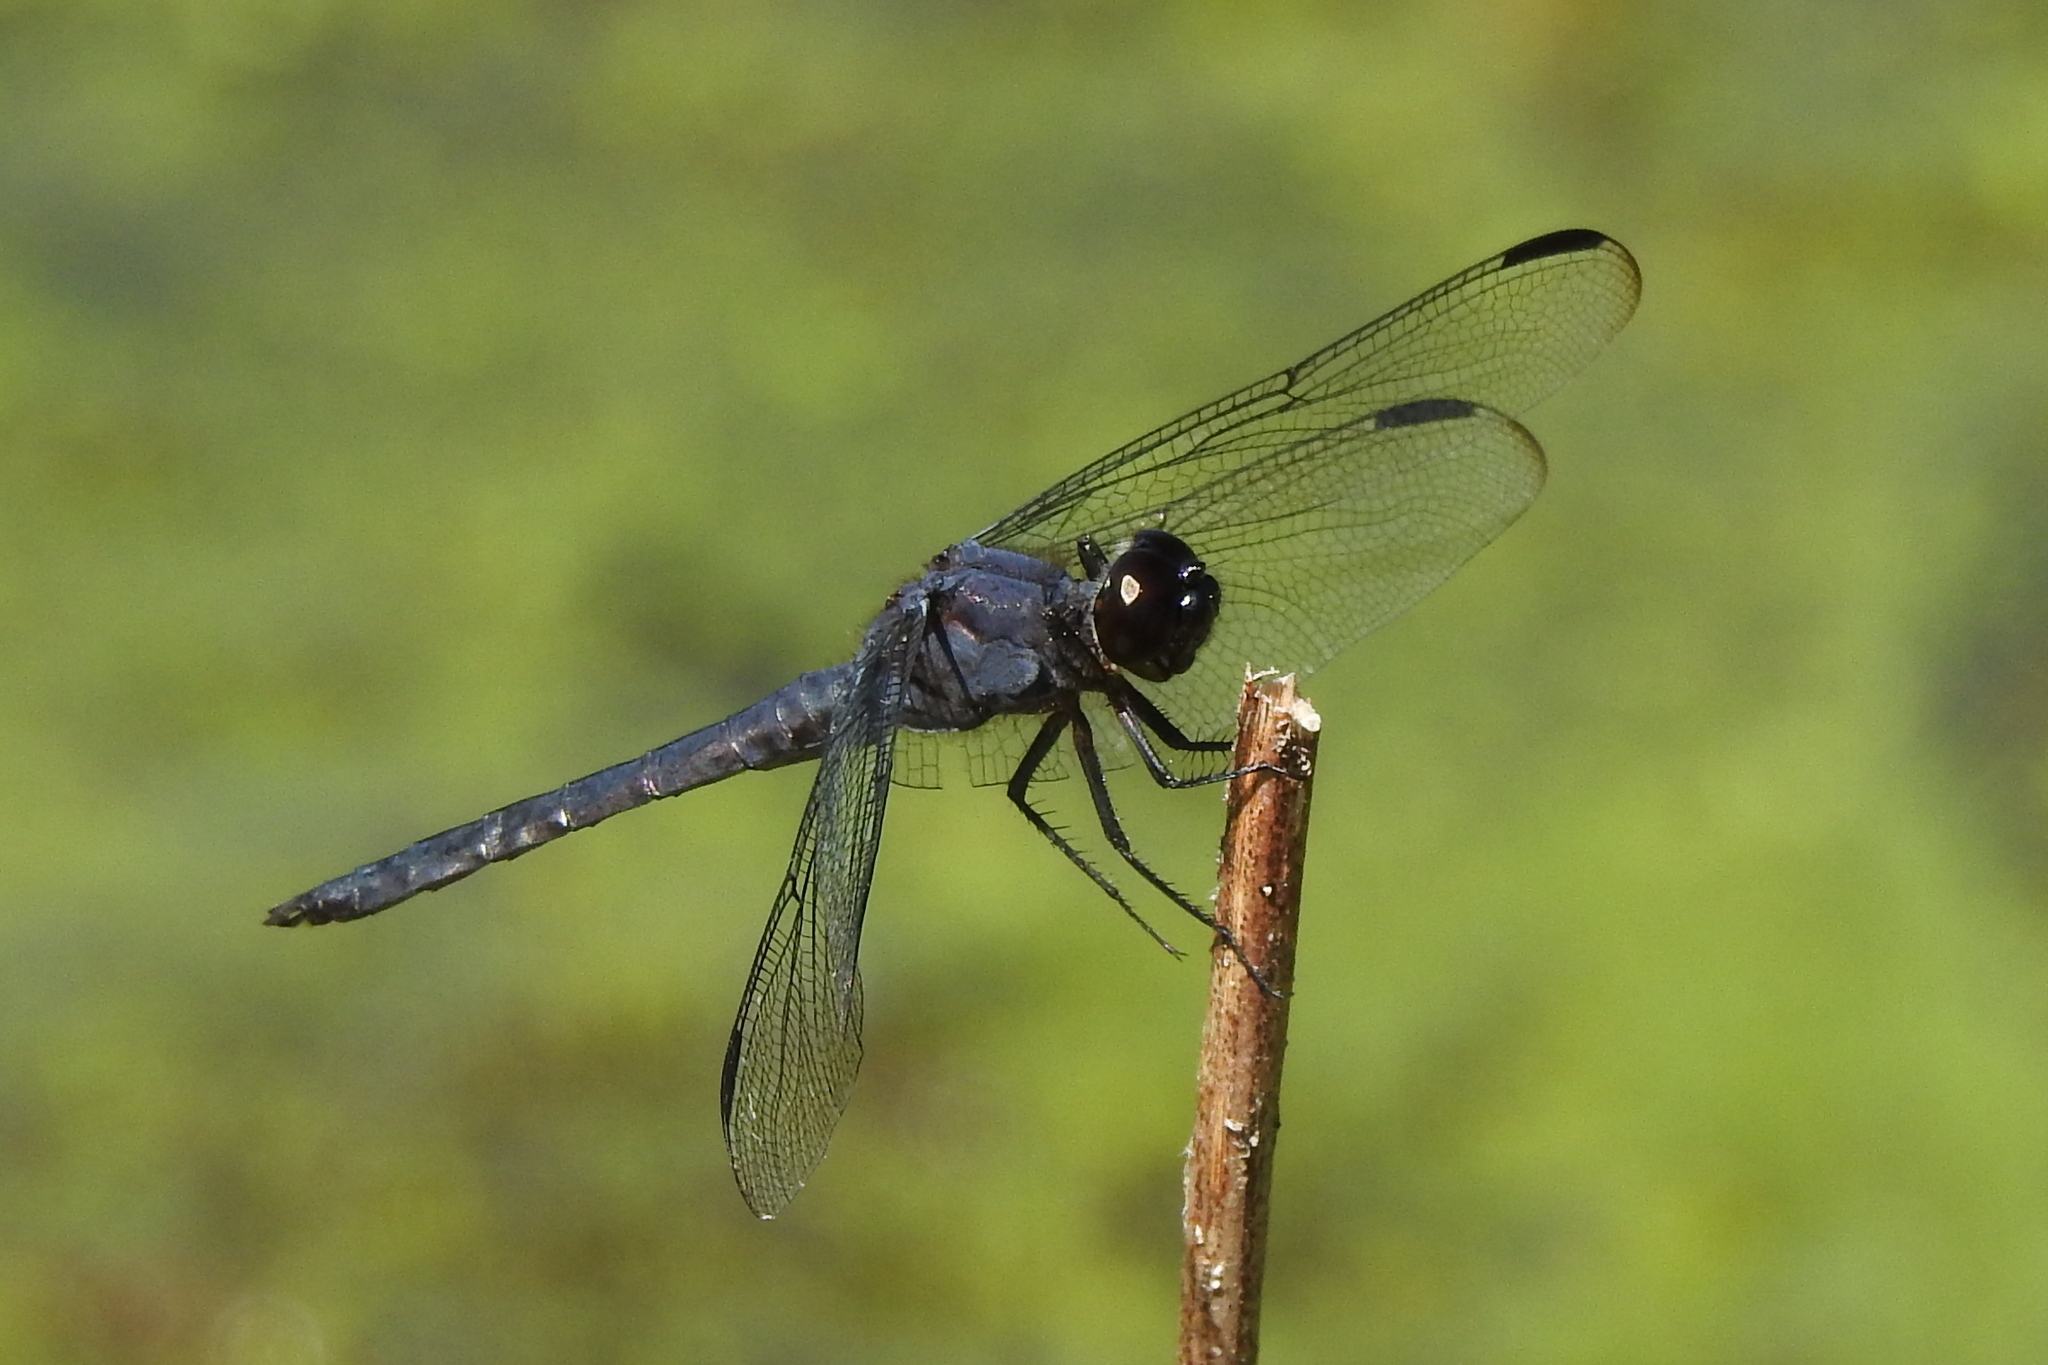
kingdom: Animalia
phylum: Arthropoda
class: Insecta
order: Odonata
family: Libellulidae
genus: Libellula
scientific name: Libellula incesta
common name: Slaty skimmer
